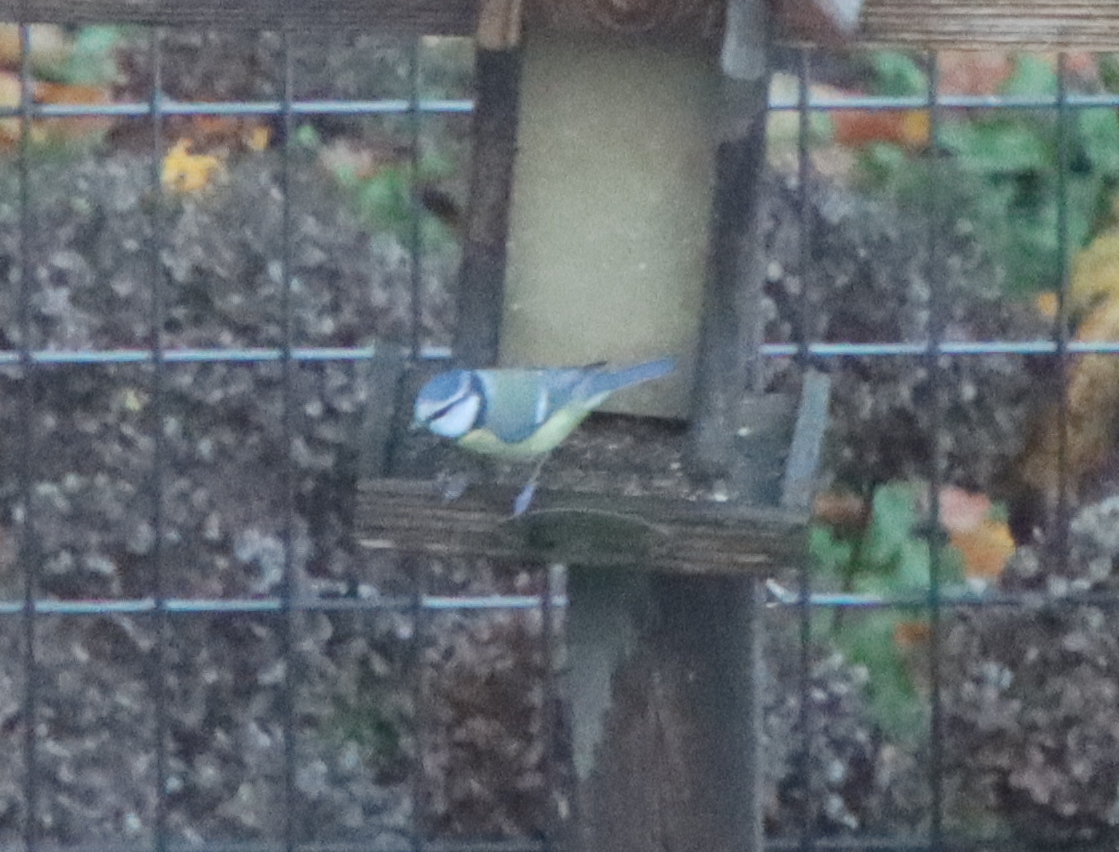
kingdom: Animalia
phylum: Chordata
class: Aves
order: Passeriformes
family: Paridae
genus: Cyanistes
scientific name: Cyanistes caeruleus
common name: Eurasian blue tit
